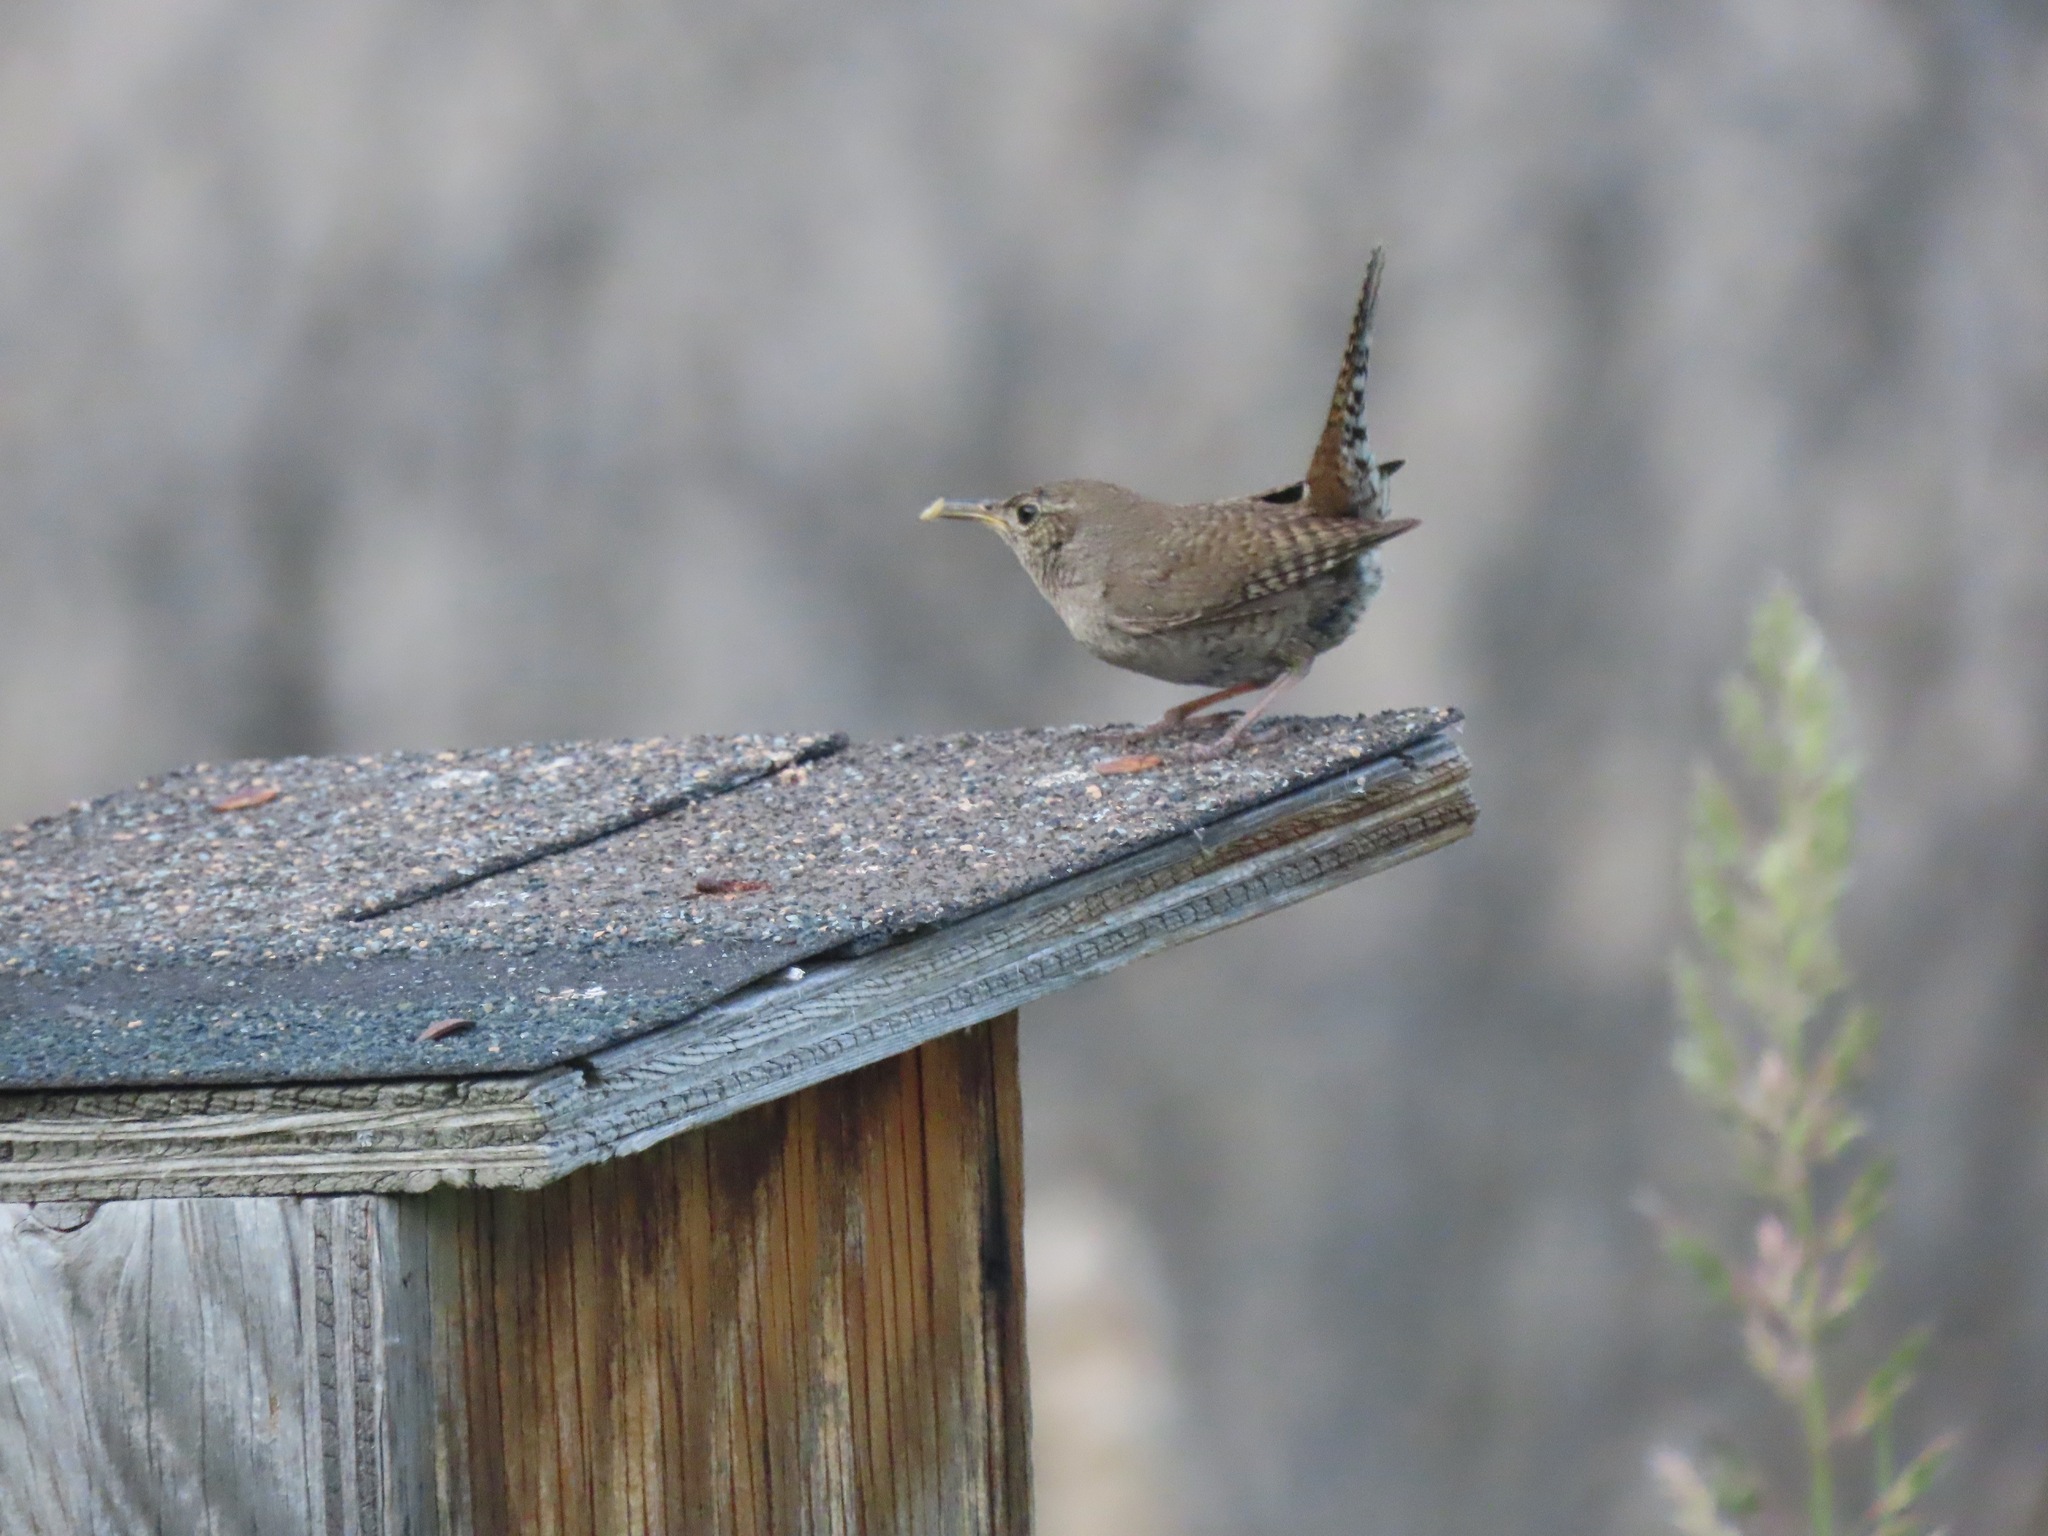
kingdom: Animalia
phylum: Chordata
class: Aves
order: Passeriformes
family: Troglodytidae
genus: Troglodytes
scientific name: Troglodytes aedon
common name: House wren
